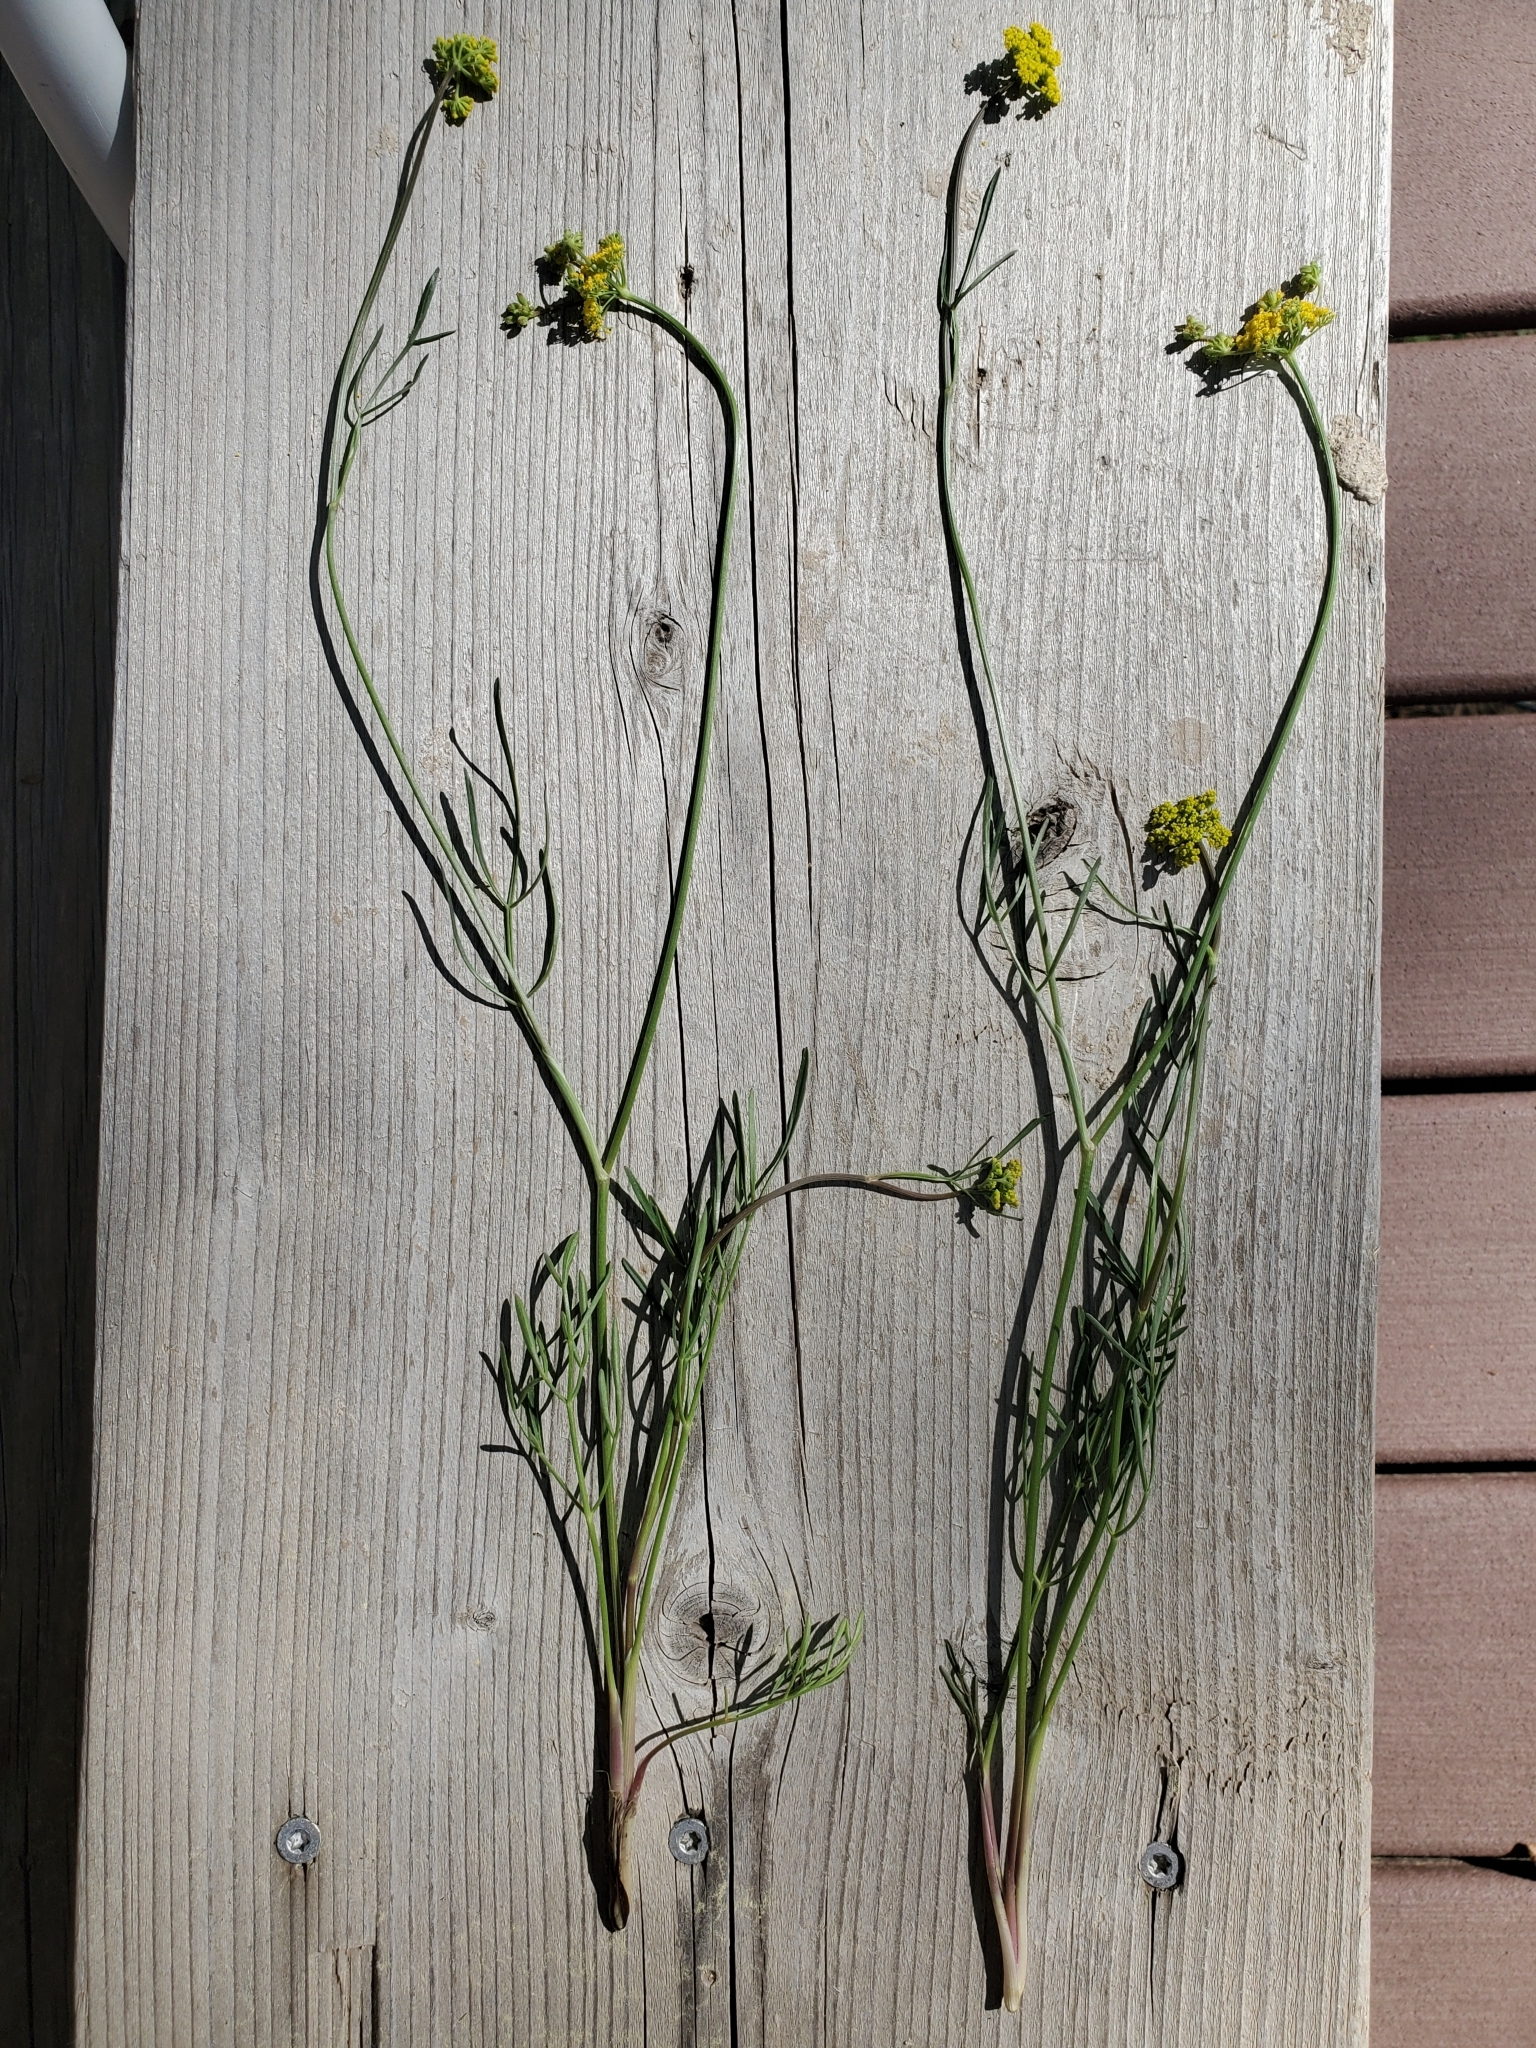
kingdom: Plantae
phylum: Tracheophyta
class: Magnoliopsida
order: Apiales
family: Apiaceae
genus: Cymopterus
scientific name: Cymopterus lemmonii
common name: Lemmon's spring-parsley
